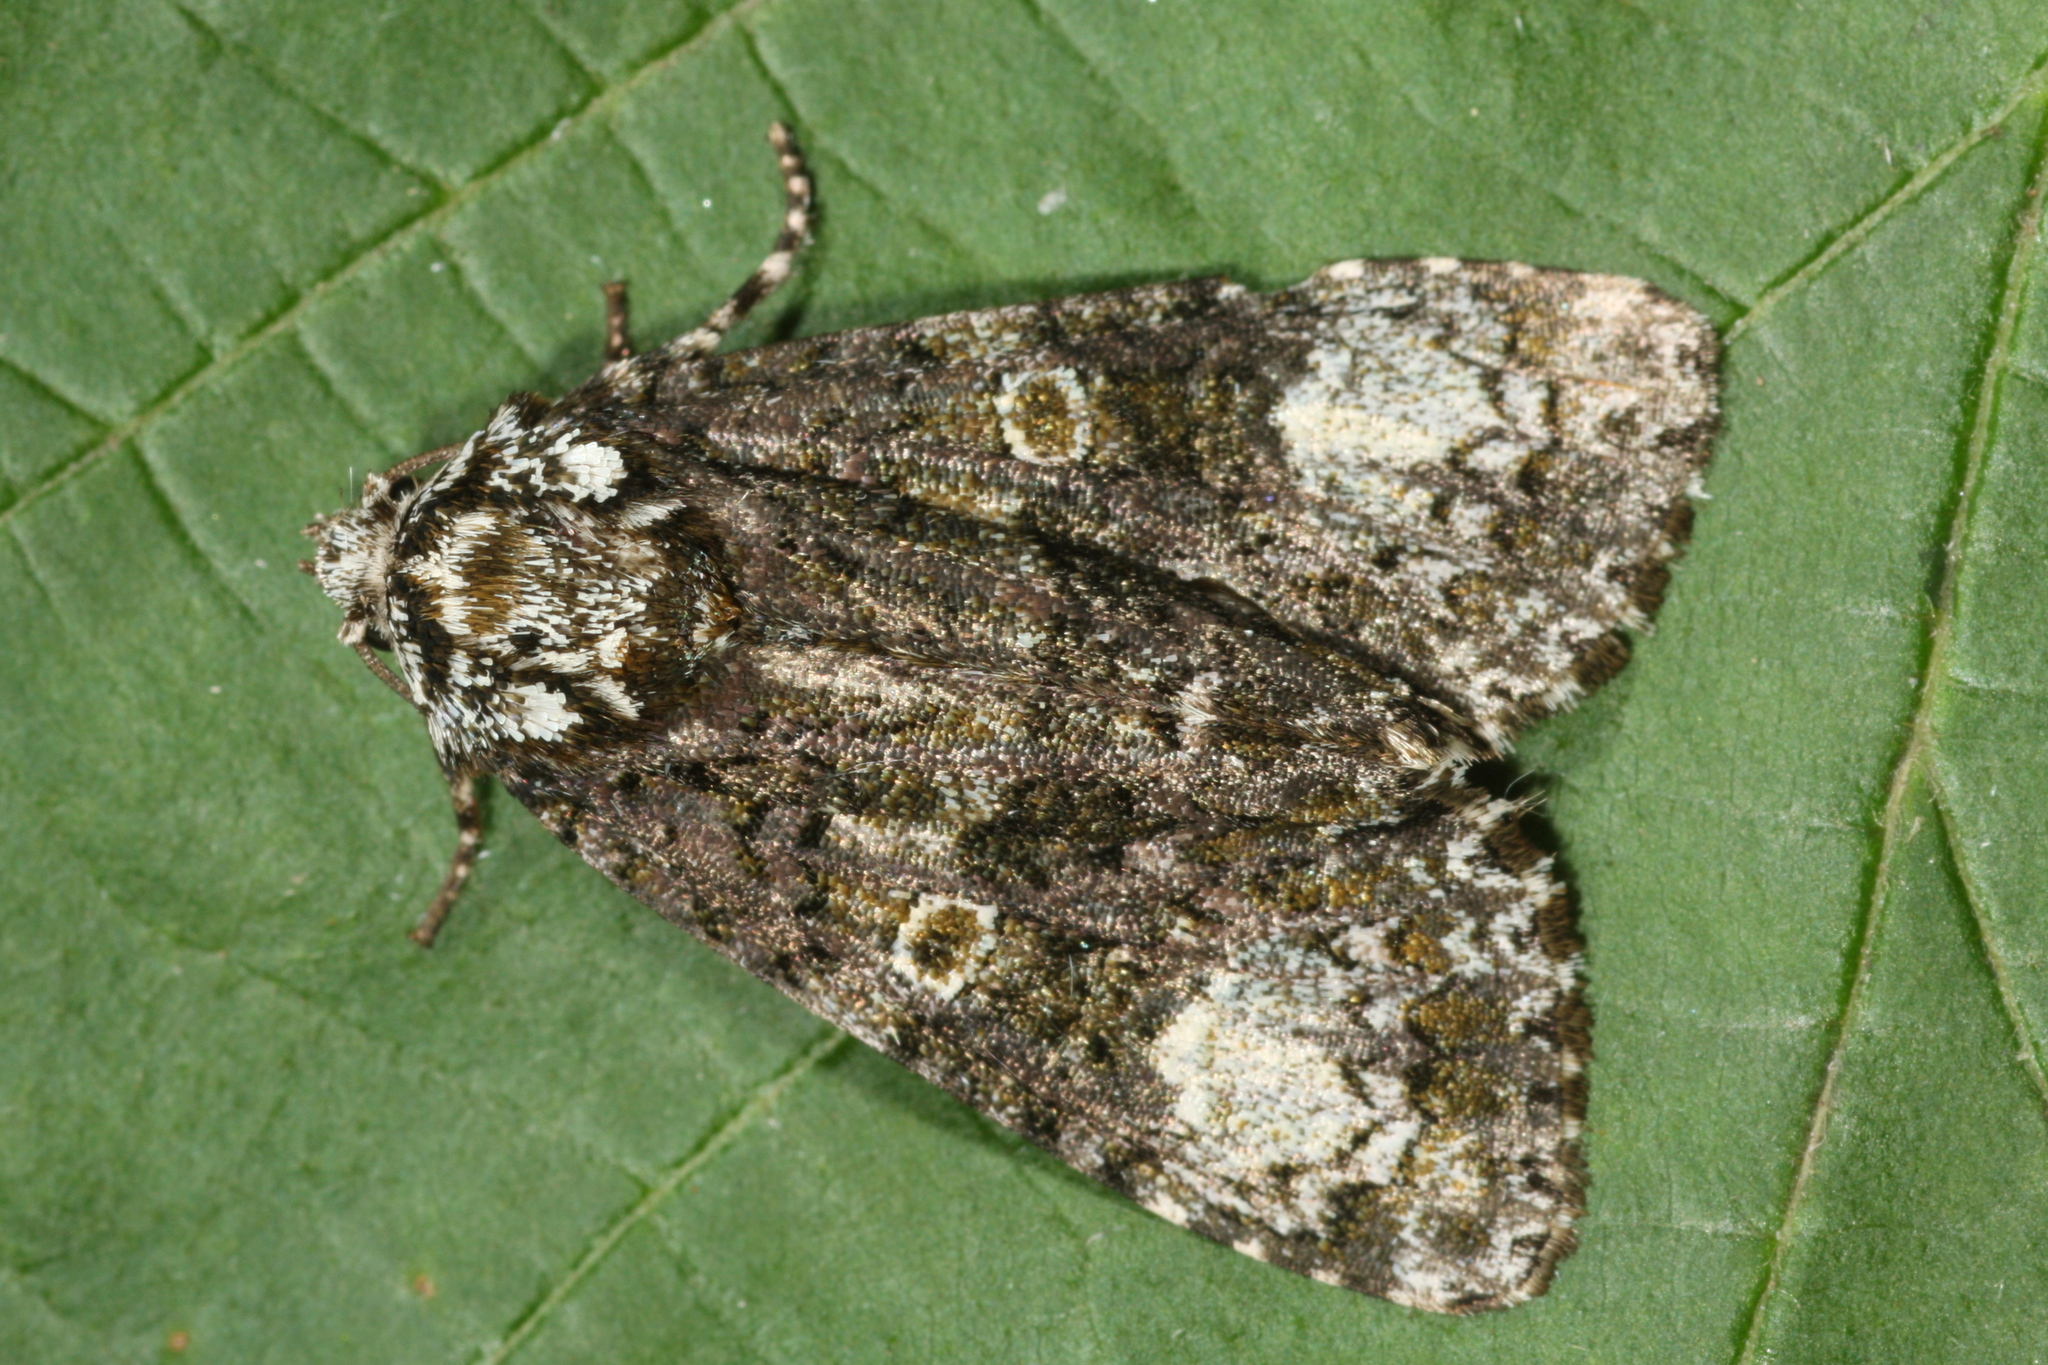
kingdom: Animalia
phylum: Arthropoda
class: Insecta
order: Lepidoptera
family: Noctuidae
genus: Craniophora
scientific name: Craniophora ligustri
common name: Coronet
